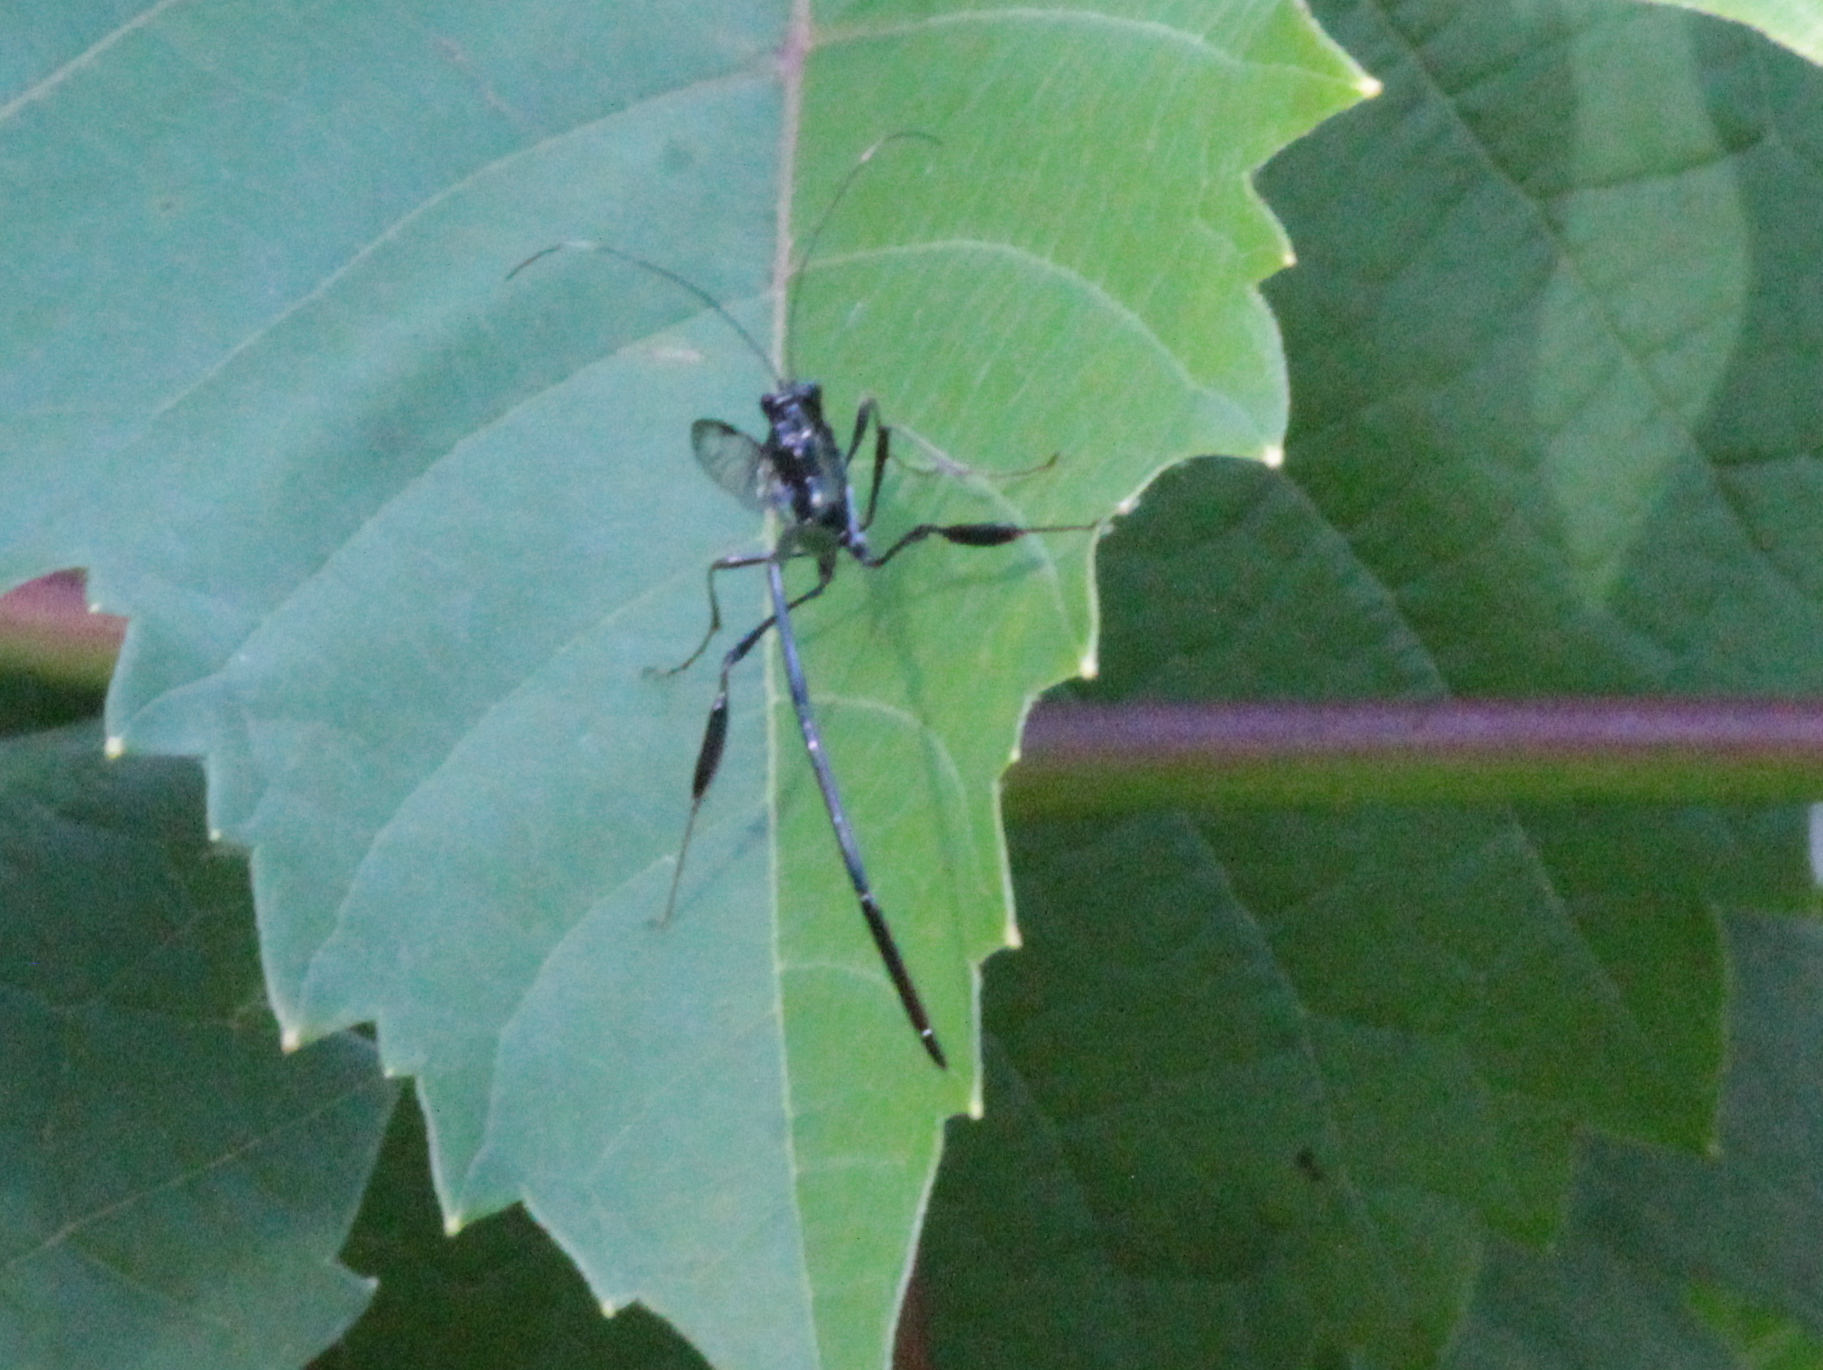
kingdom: Animalia
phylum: Arthropoda
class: Insecta
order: Hymenoptera
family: Pelecinidae
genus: Pelecinus
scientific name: Pelecinus polyturator
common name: American pelecinid wasp
